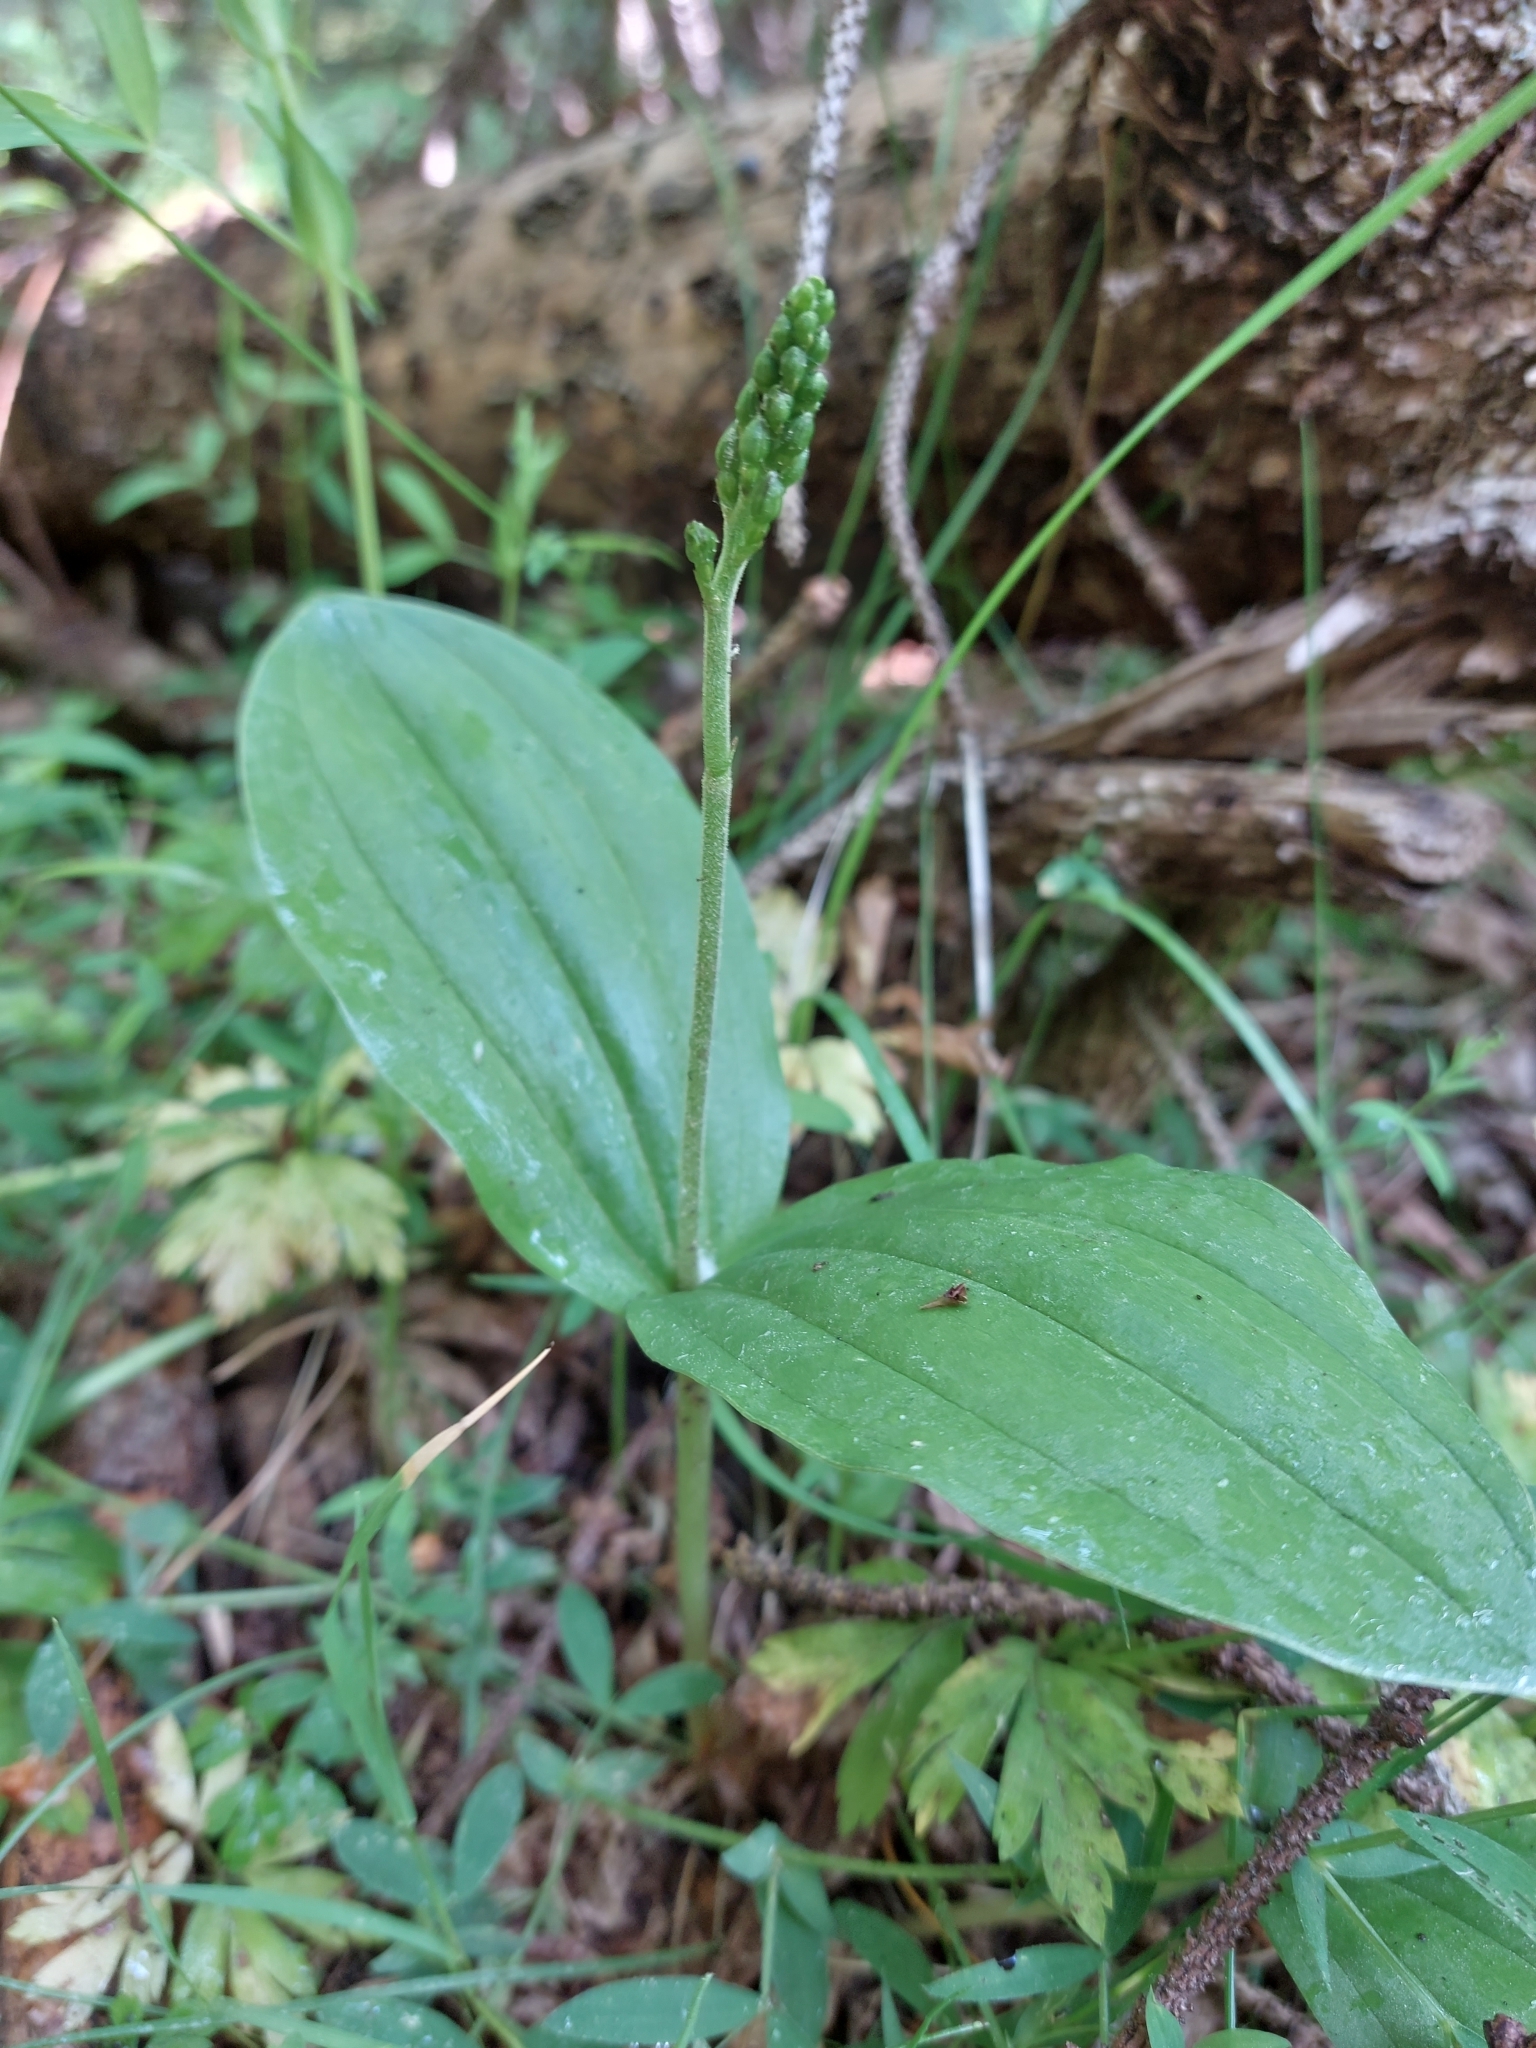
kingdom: Plantae
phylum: Tracheophyta
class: Liliopsida
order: Asparagales
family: Orchidaceae
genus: Neottia
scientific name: Neottia ovata
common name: Common twayblade
